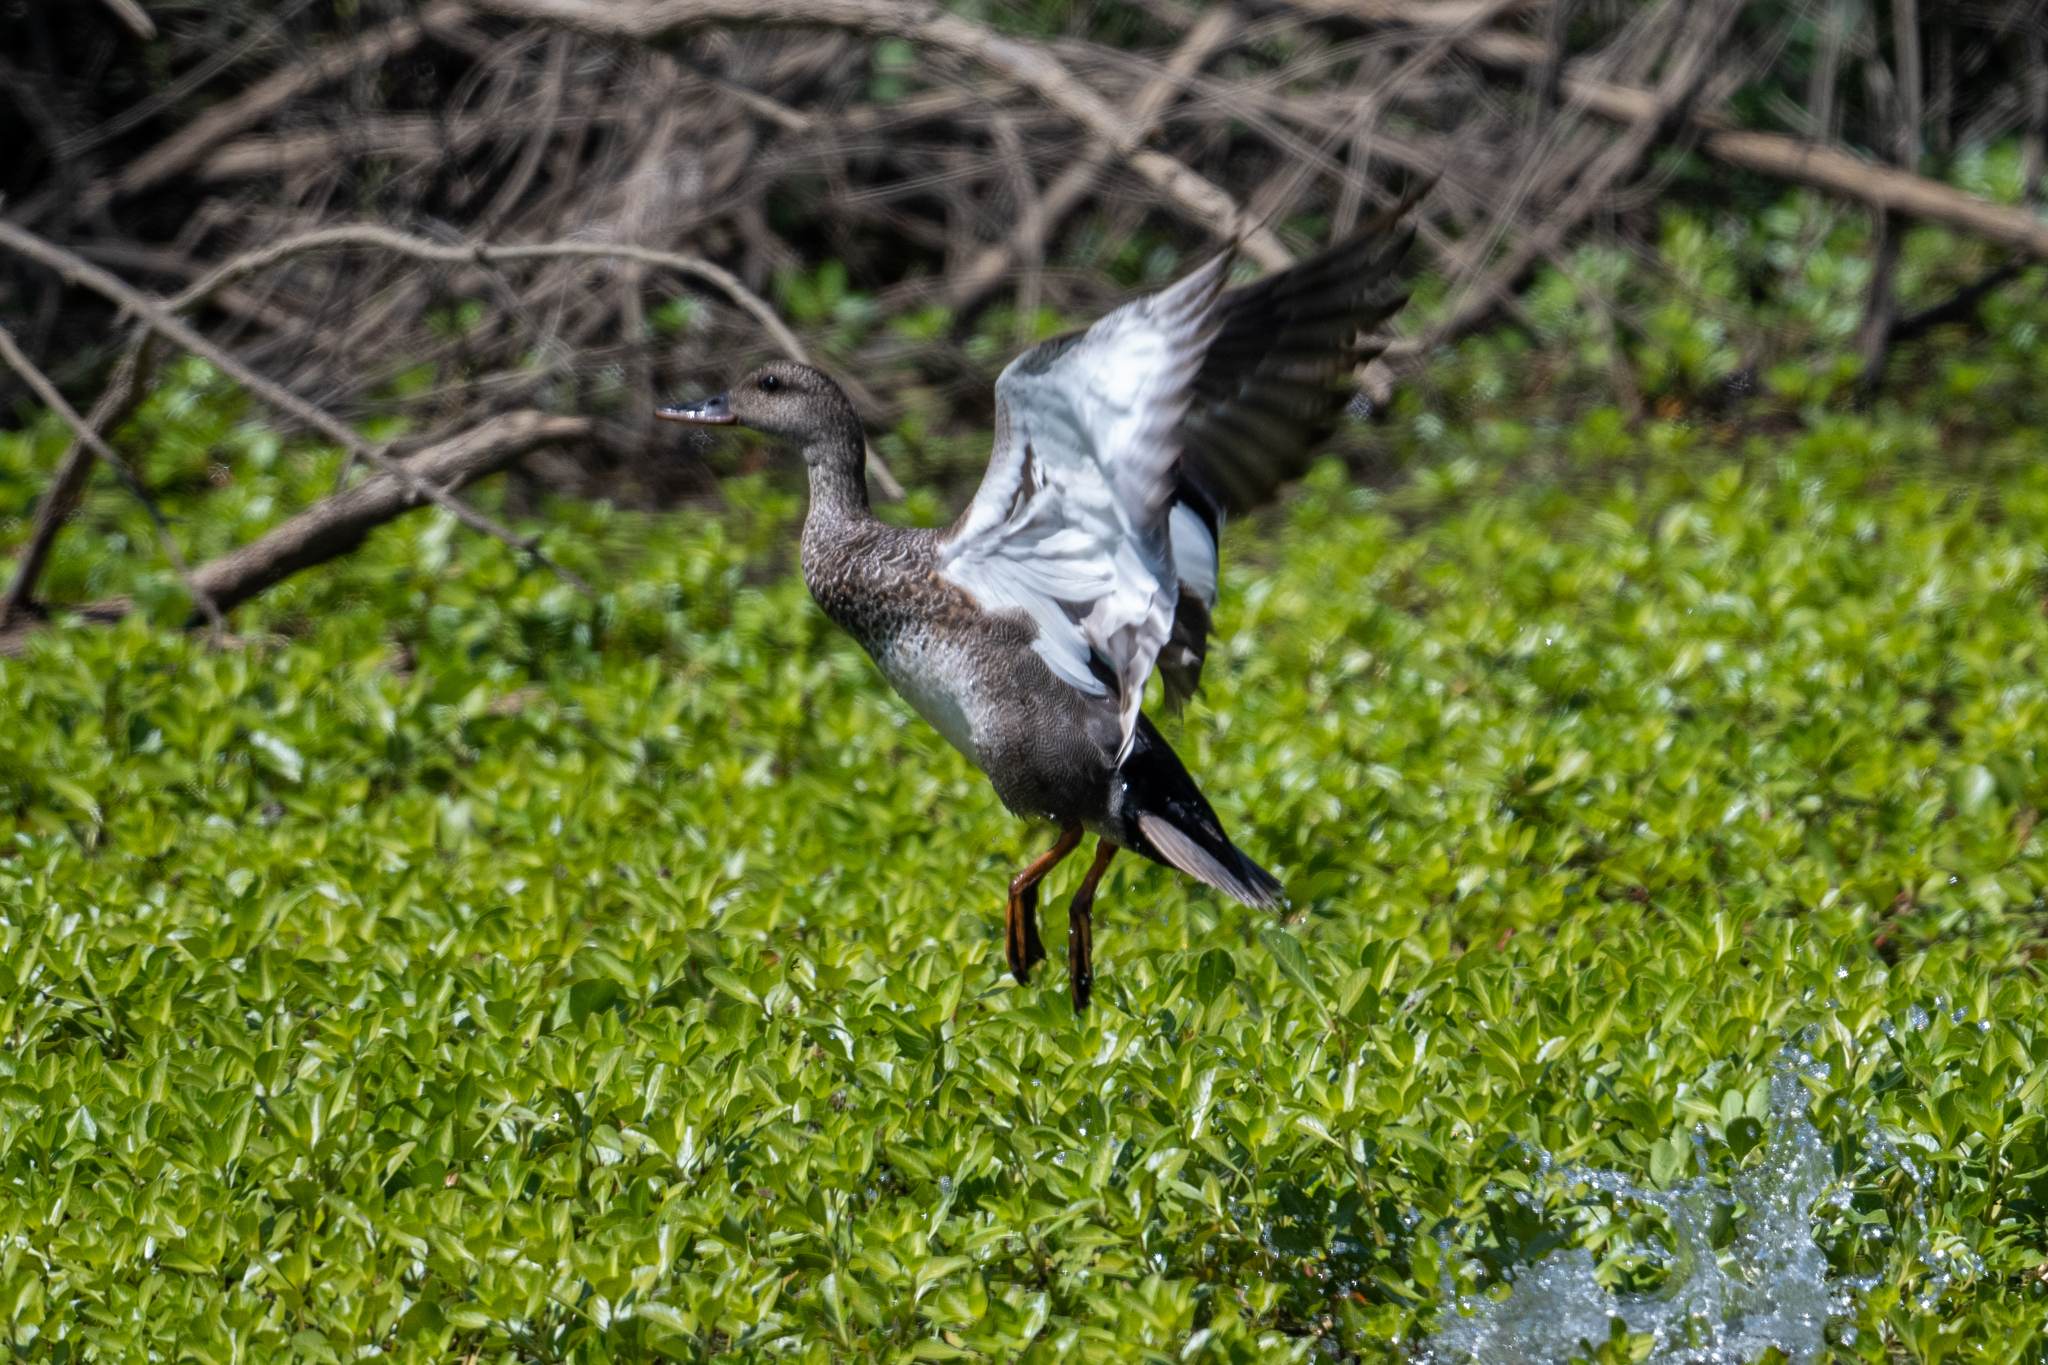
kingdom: Animalia
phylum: Chordata
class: Aves
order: Anseriformes
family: Anatidae
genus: Mareca
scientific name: Mareca strepera
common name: Gadwall
